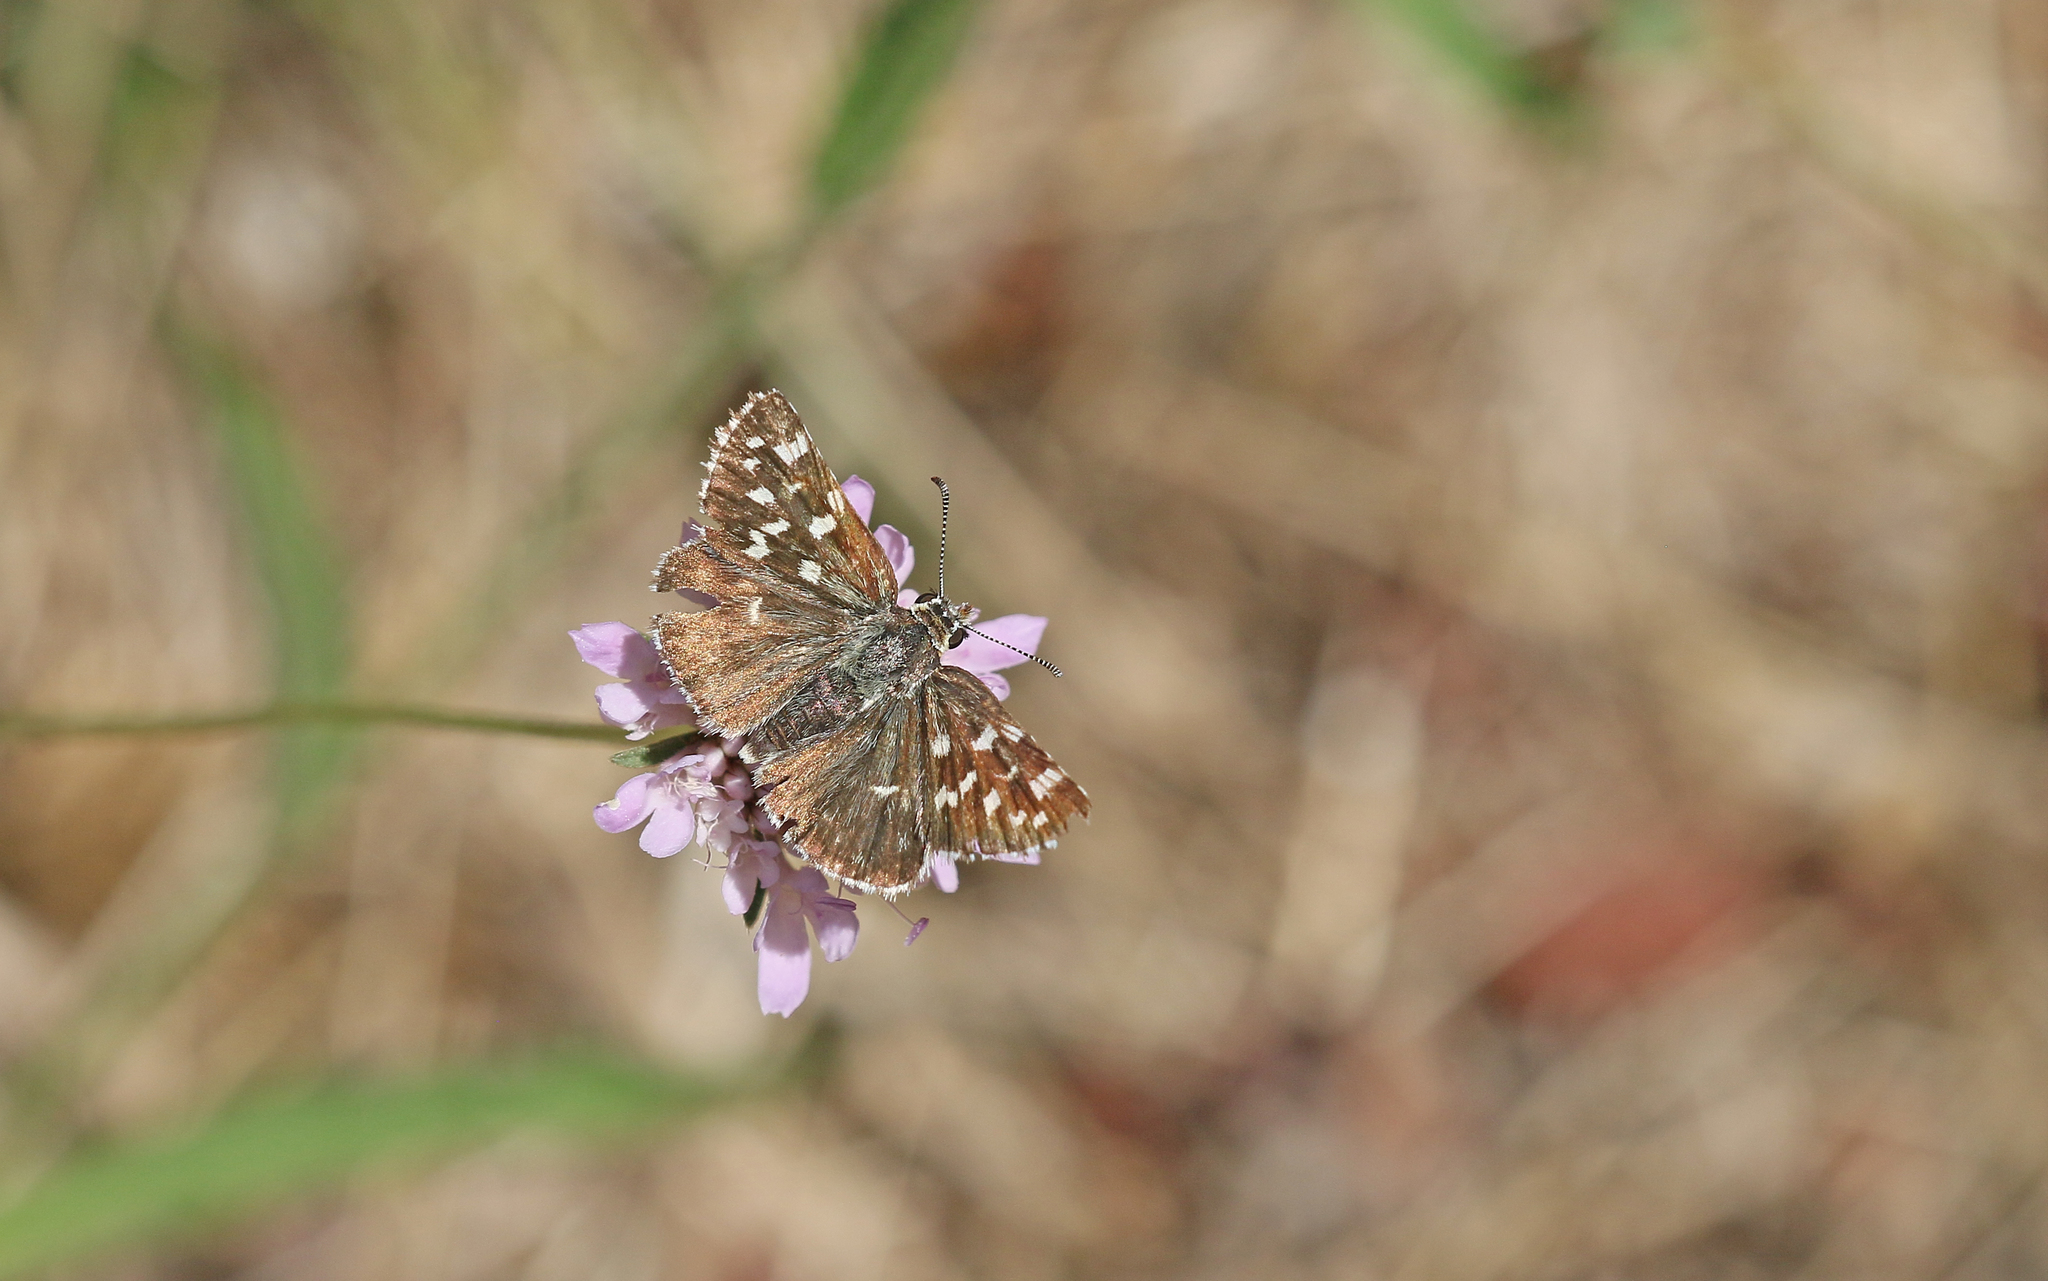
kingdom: Animalia
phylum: Arthropoda
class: Insecta
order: Lepidoptera
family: Hesperiidae
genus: Pyrgus
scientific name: Pyrgus malvoides
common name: Southern grizzled skipper
